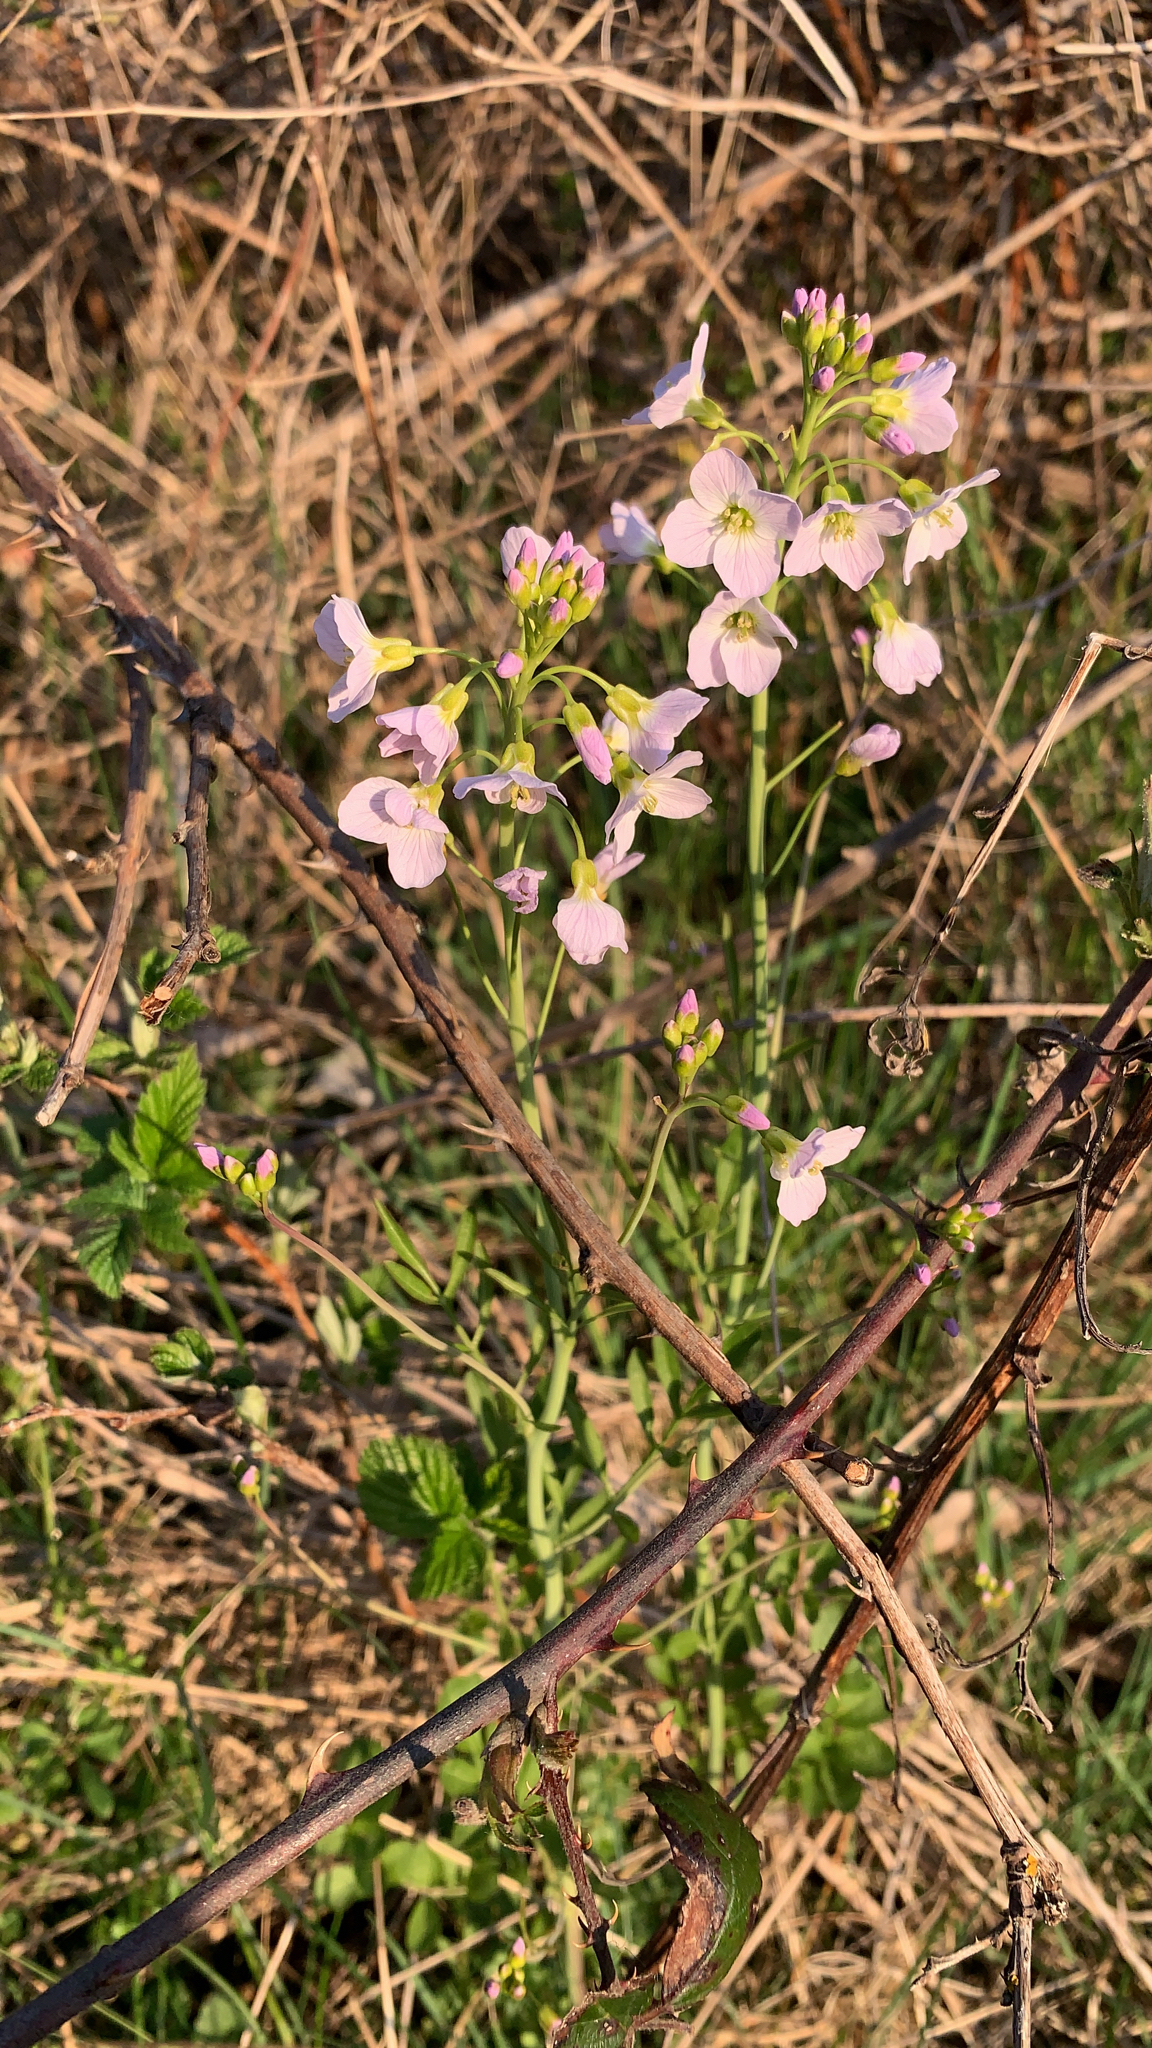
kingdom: Plantae
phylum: Tracheophyta
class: Magnoliopsida
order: Brassicales
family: Brassicaceae
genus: Cardamine
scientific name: Cardamine pratensis
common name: Cuckoo flower
